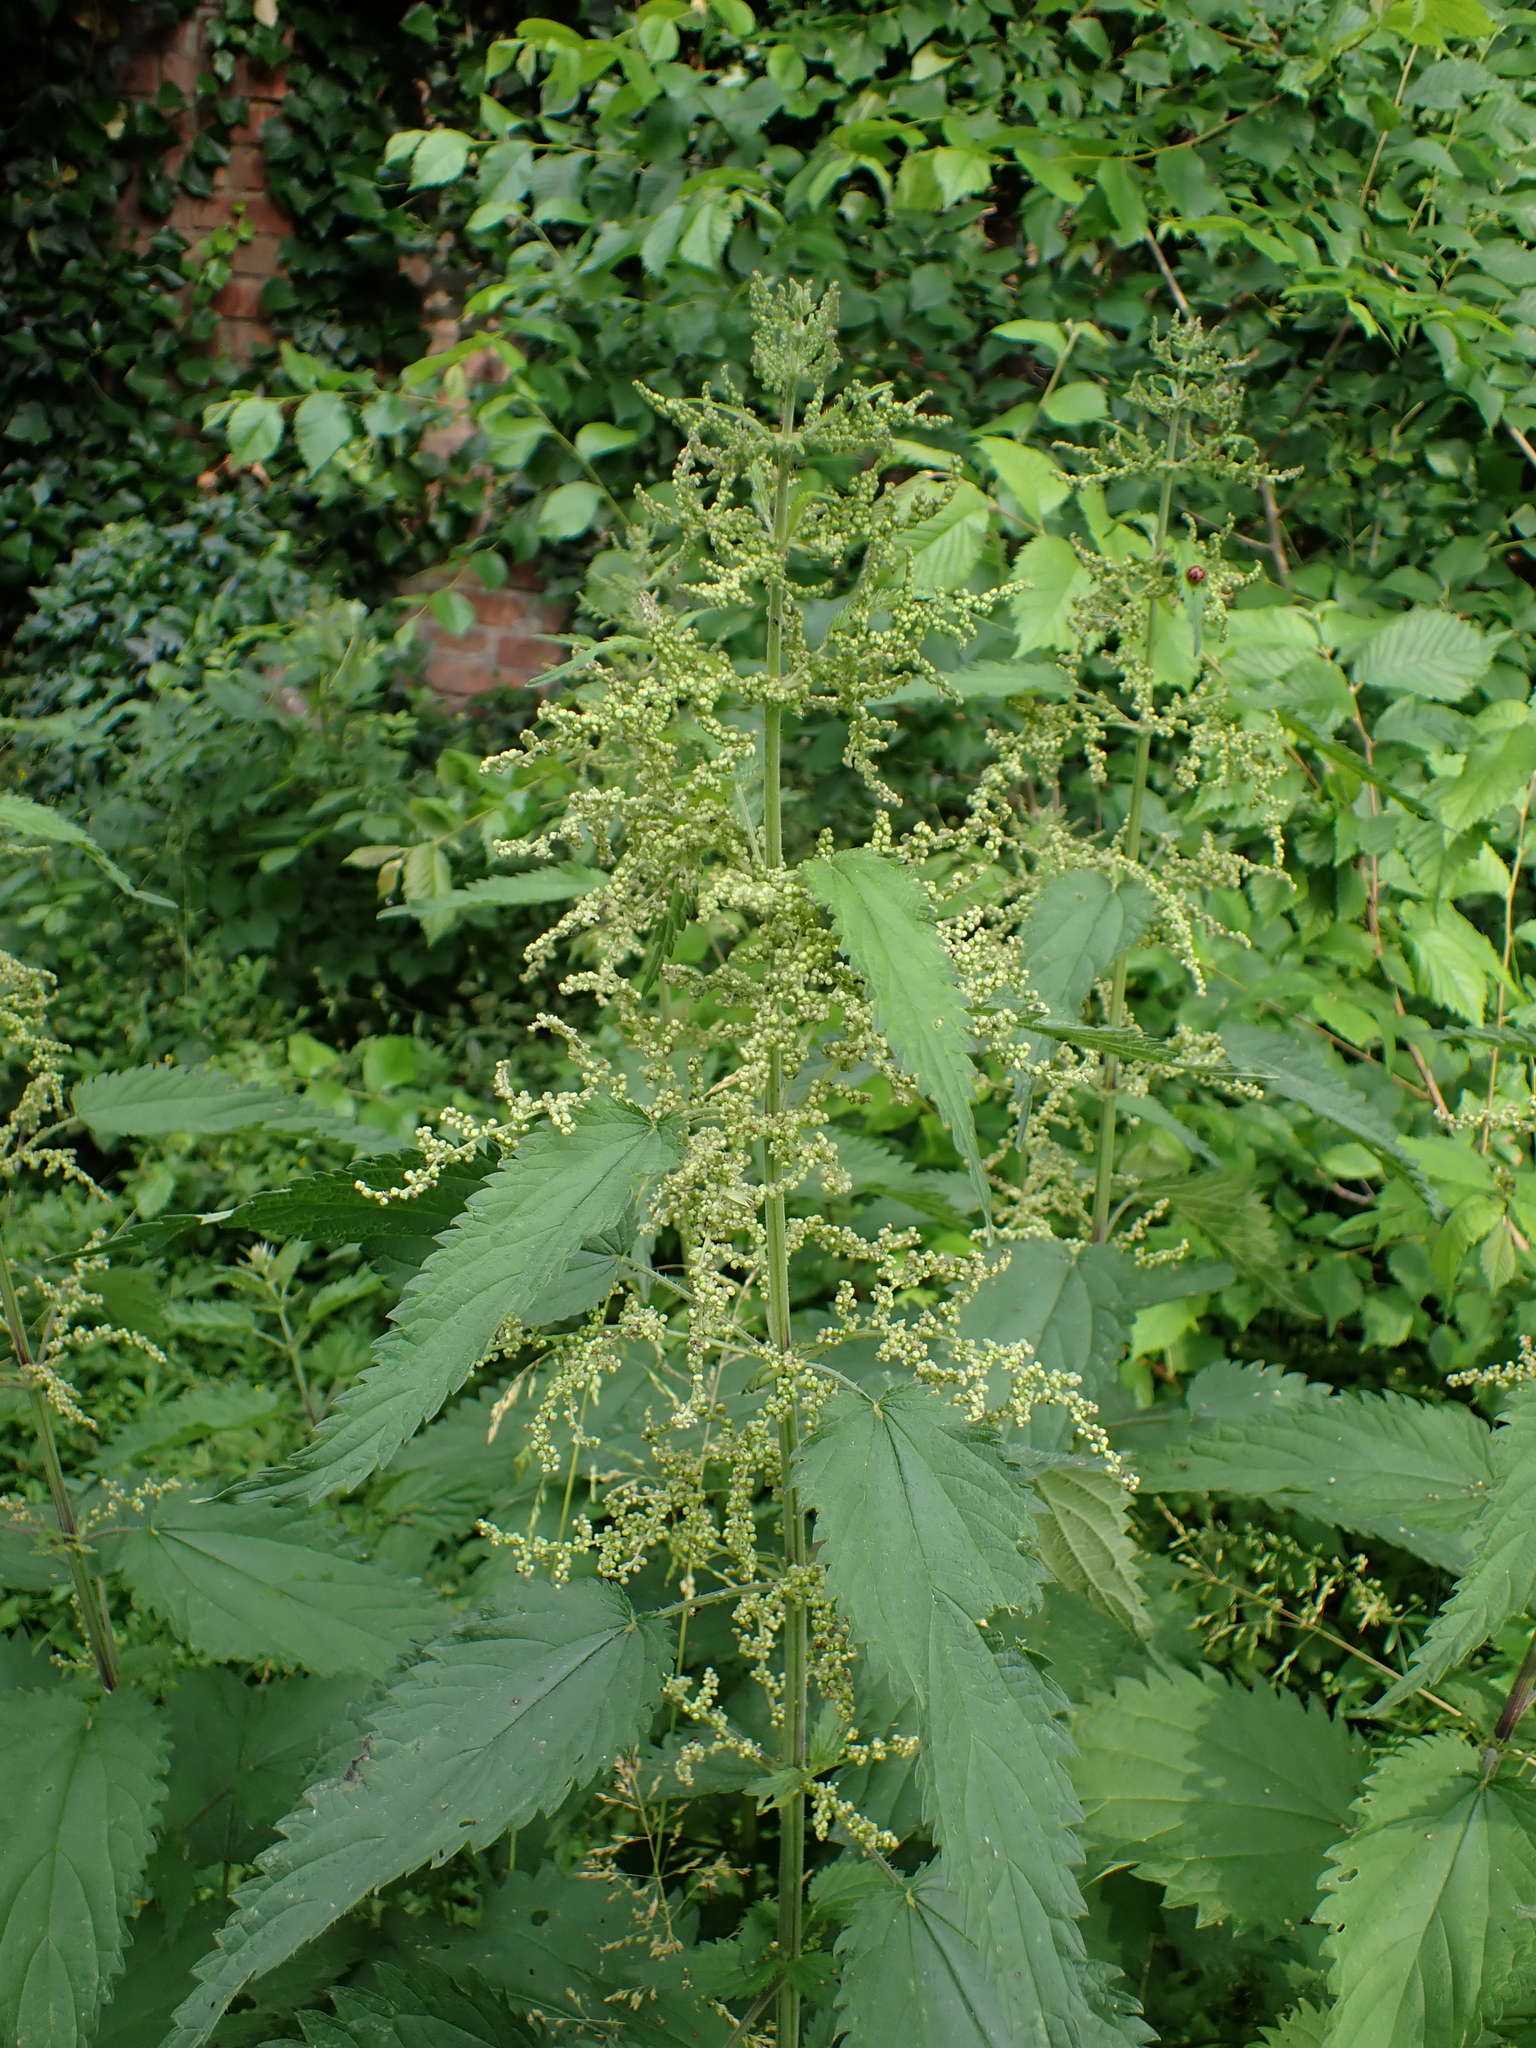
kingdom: Plantae
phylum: Tracheophyta
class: Magnoliopsida
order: Rosales
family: Urticaceae
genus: Urtica
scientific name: Urtica dioica
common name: Common nettle
